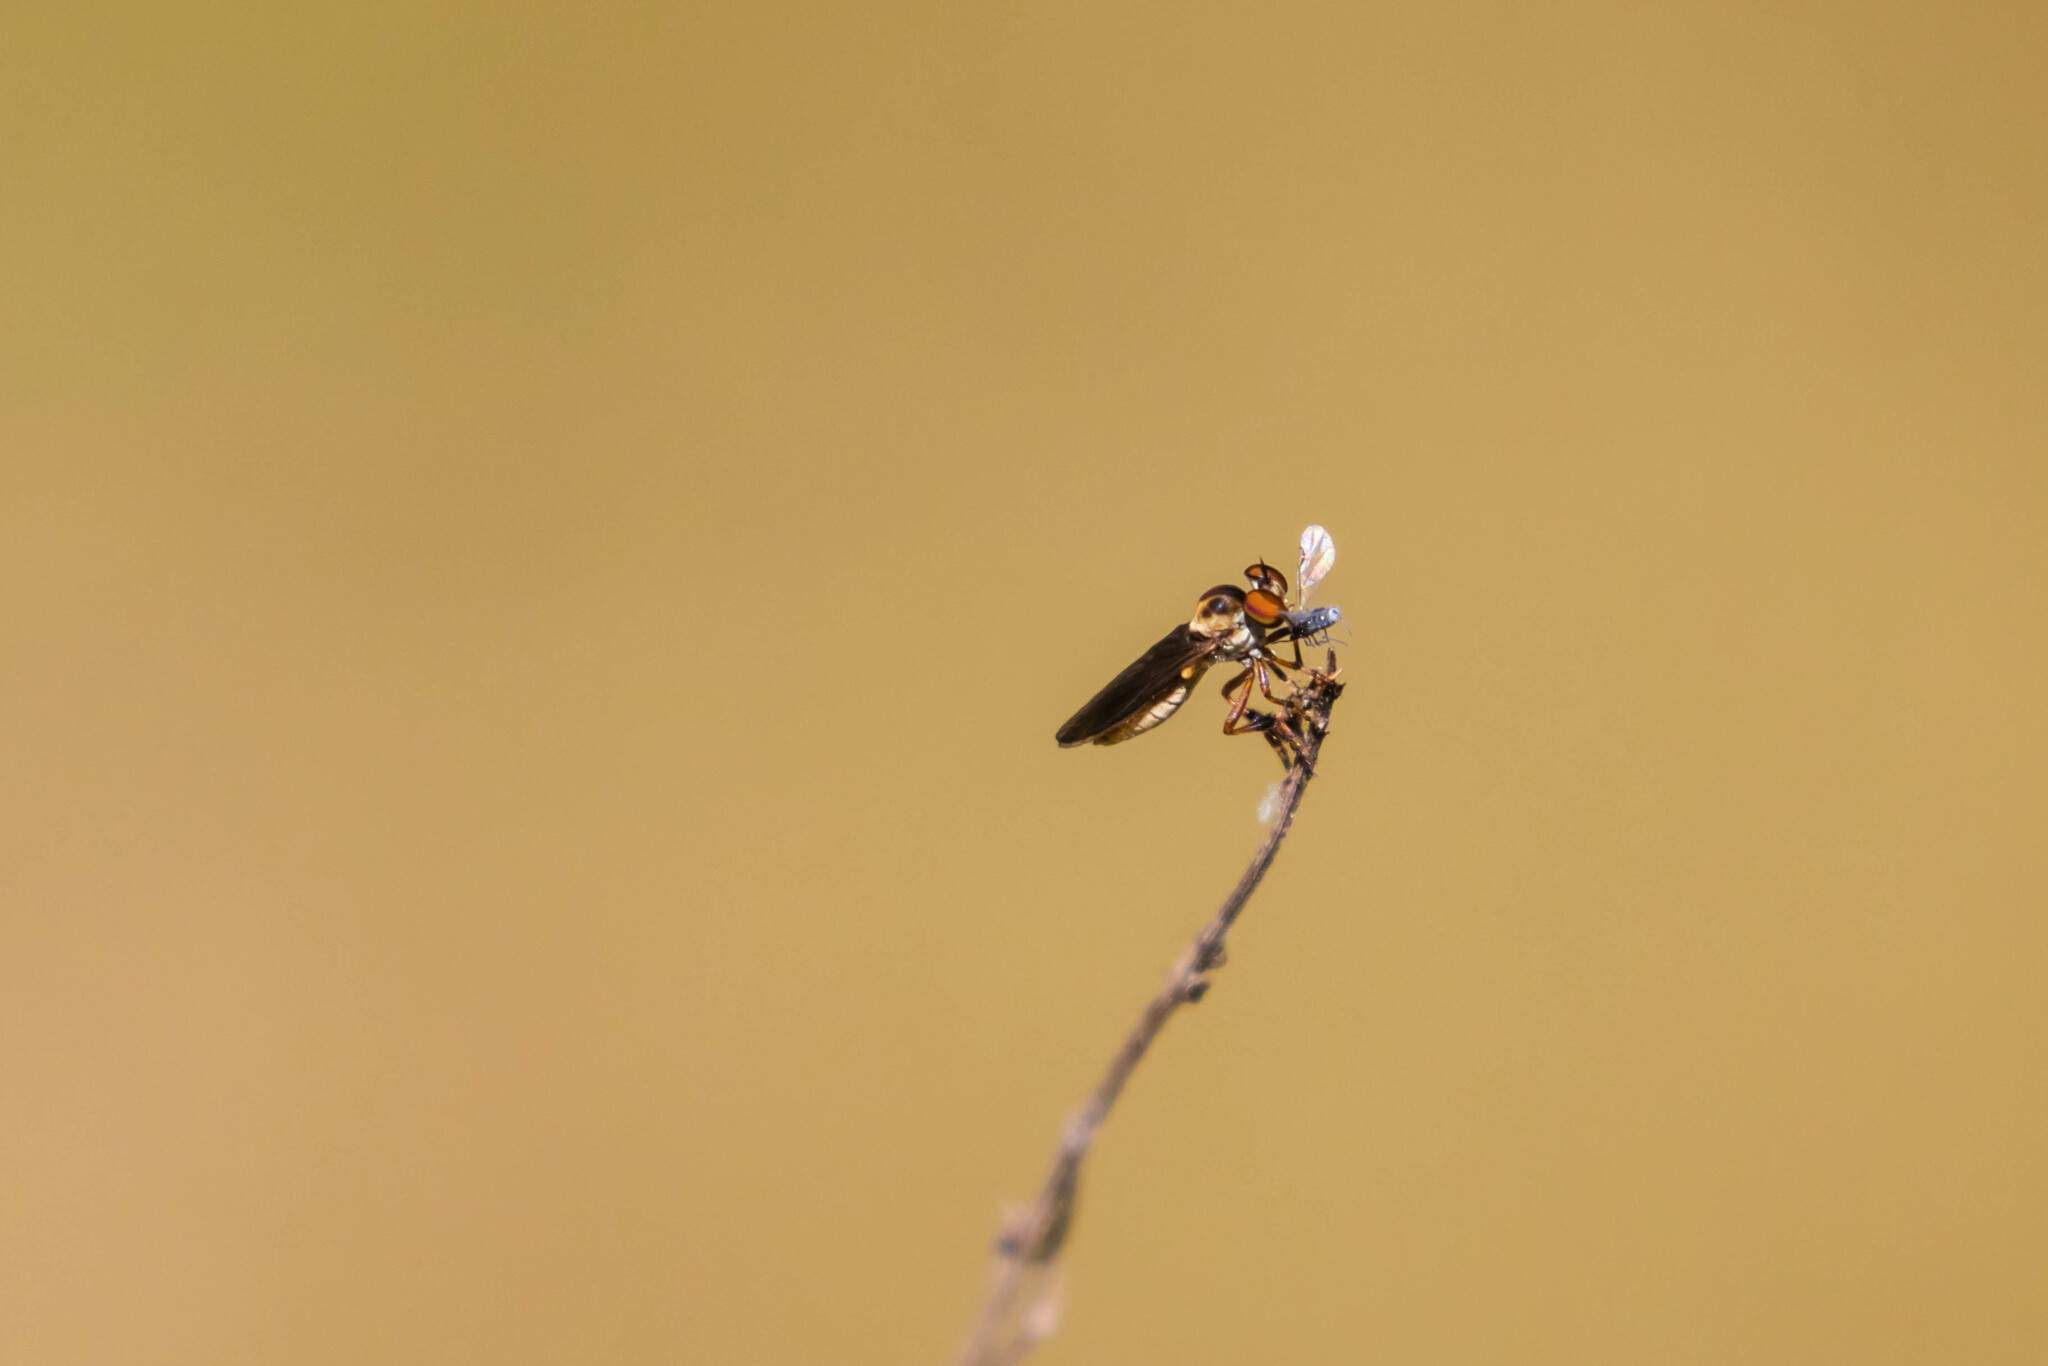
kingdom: Animalia
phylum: Arthropoda
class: Insecta
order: Diptera
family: Asilidae
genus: Holcocephala
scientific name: Holcocephala
